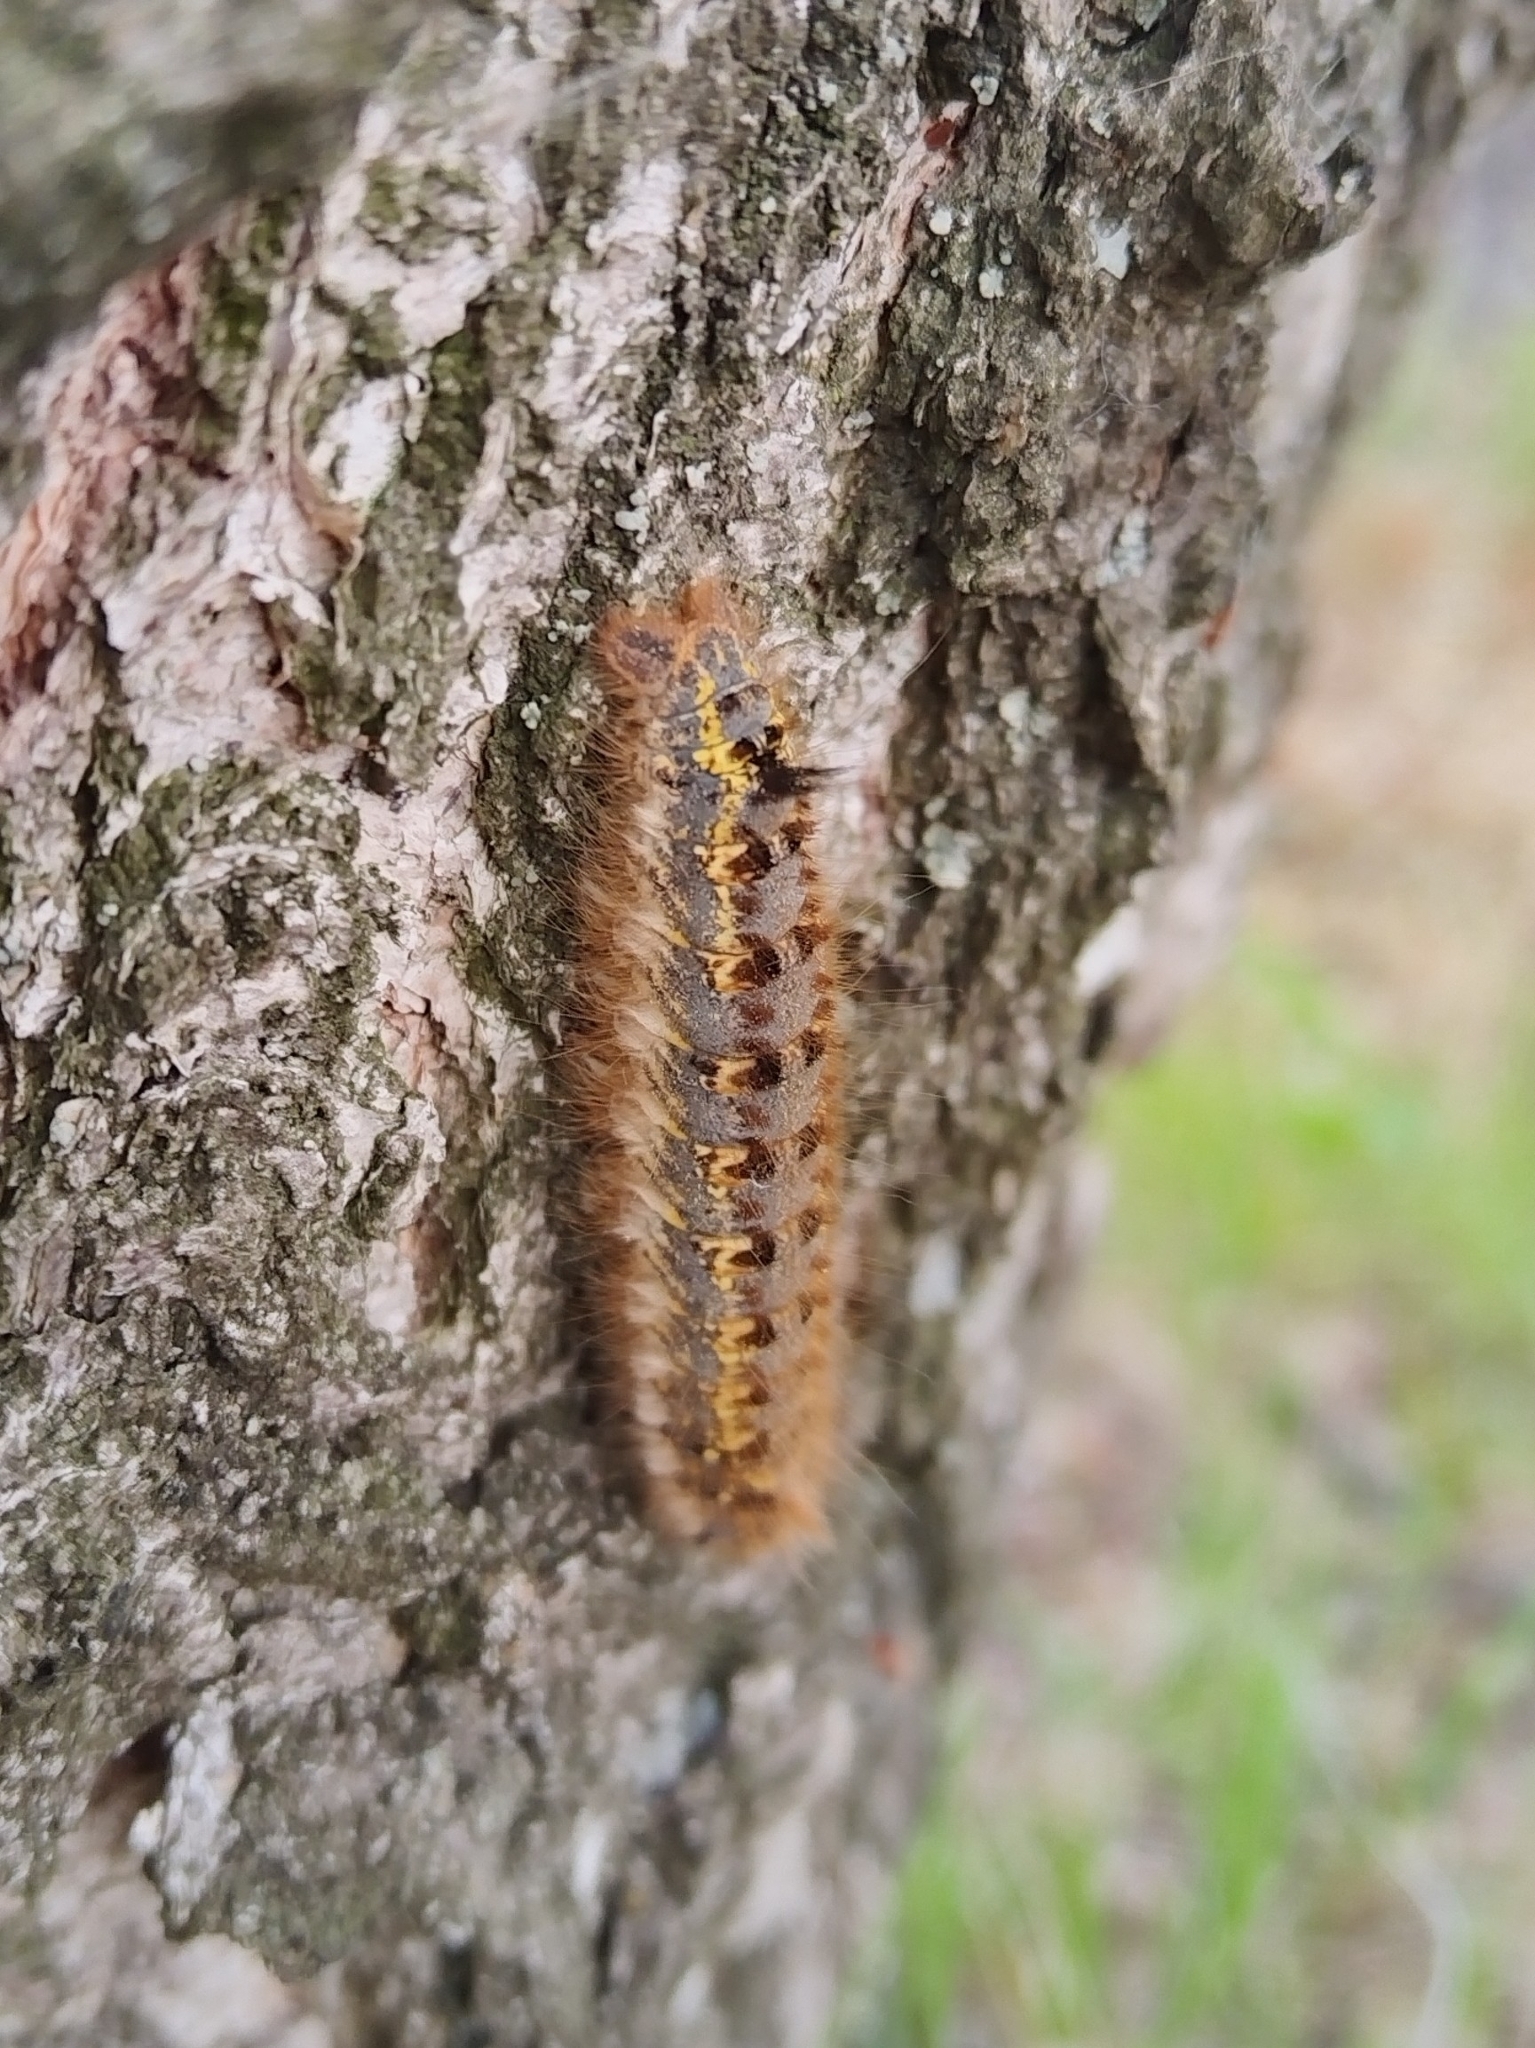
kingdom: Animalia
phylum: Arthropoda
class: Insecta
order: Lepidoptera
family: Lasiocampidae
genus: Euthrix
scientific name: Euthrix potatoria
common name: Drinker
